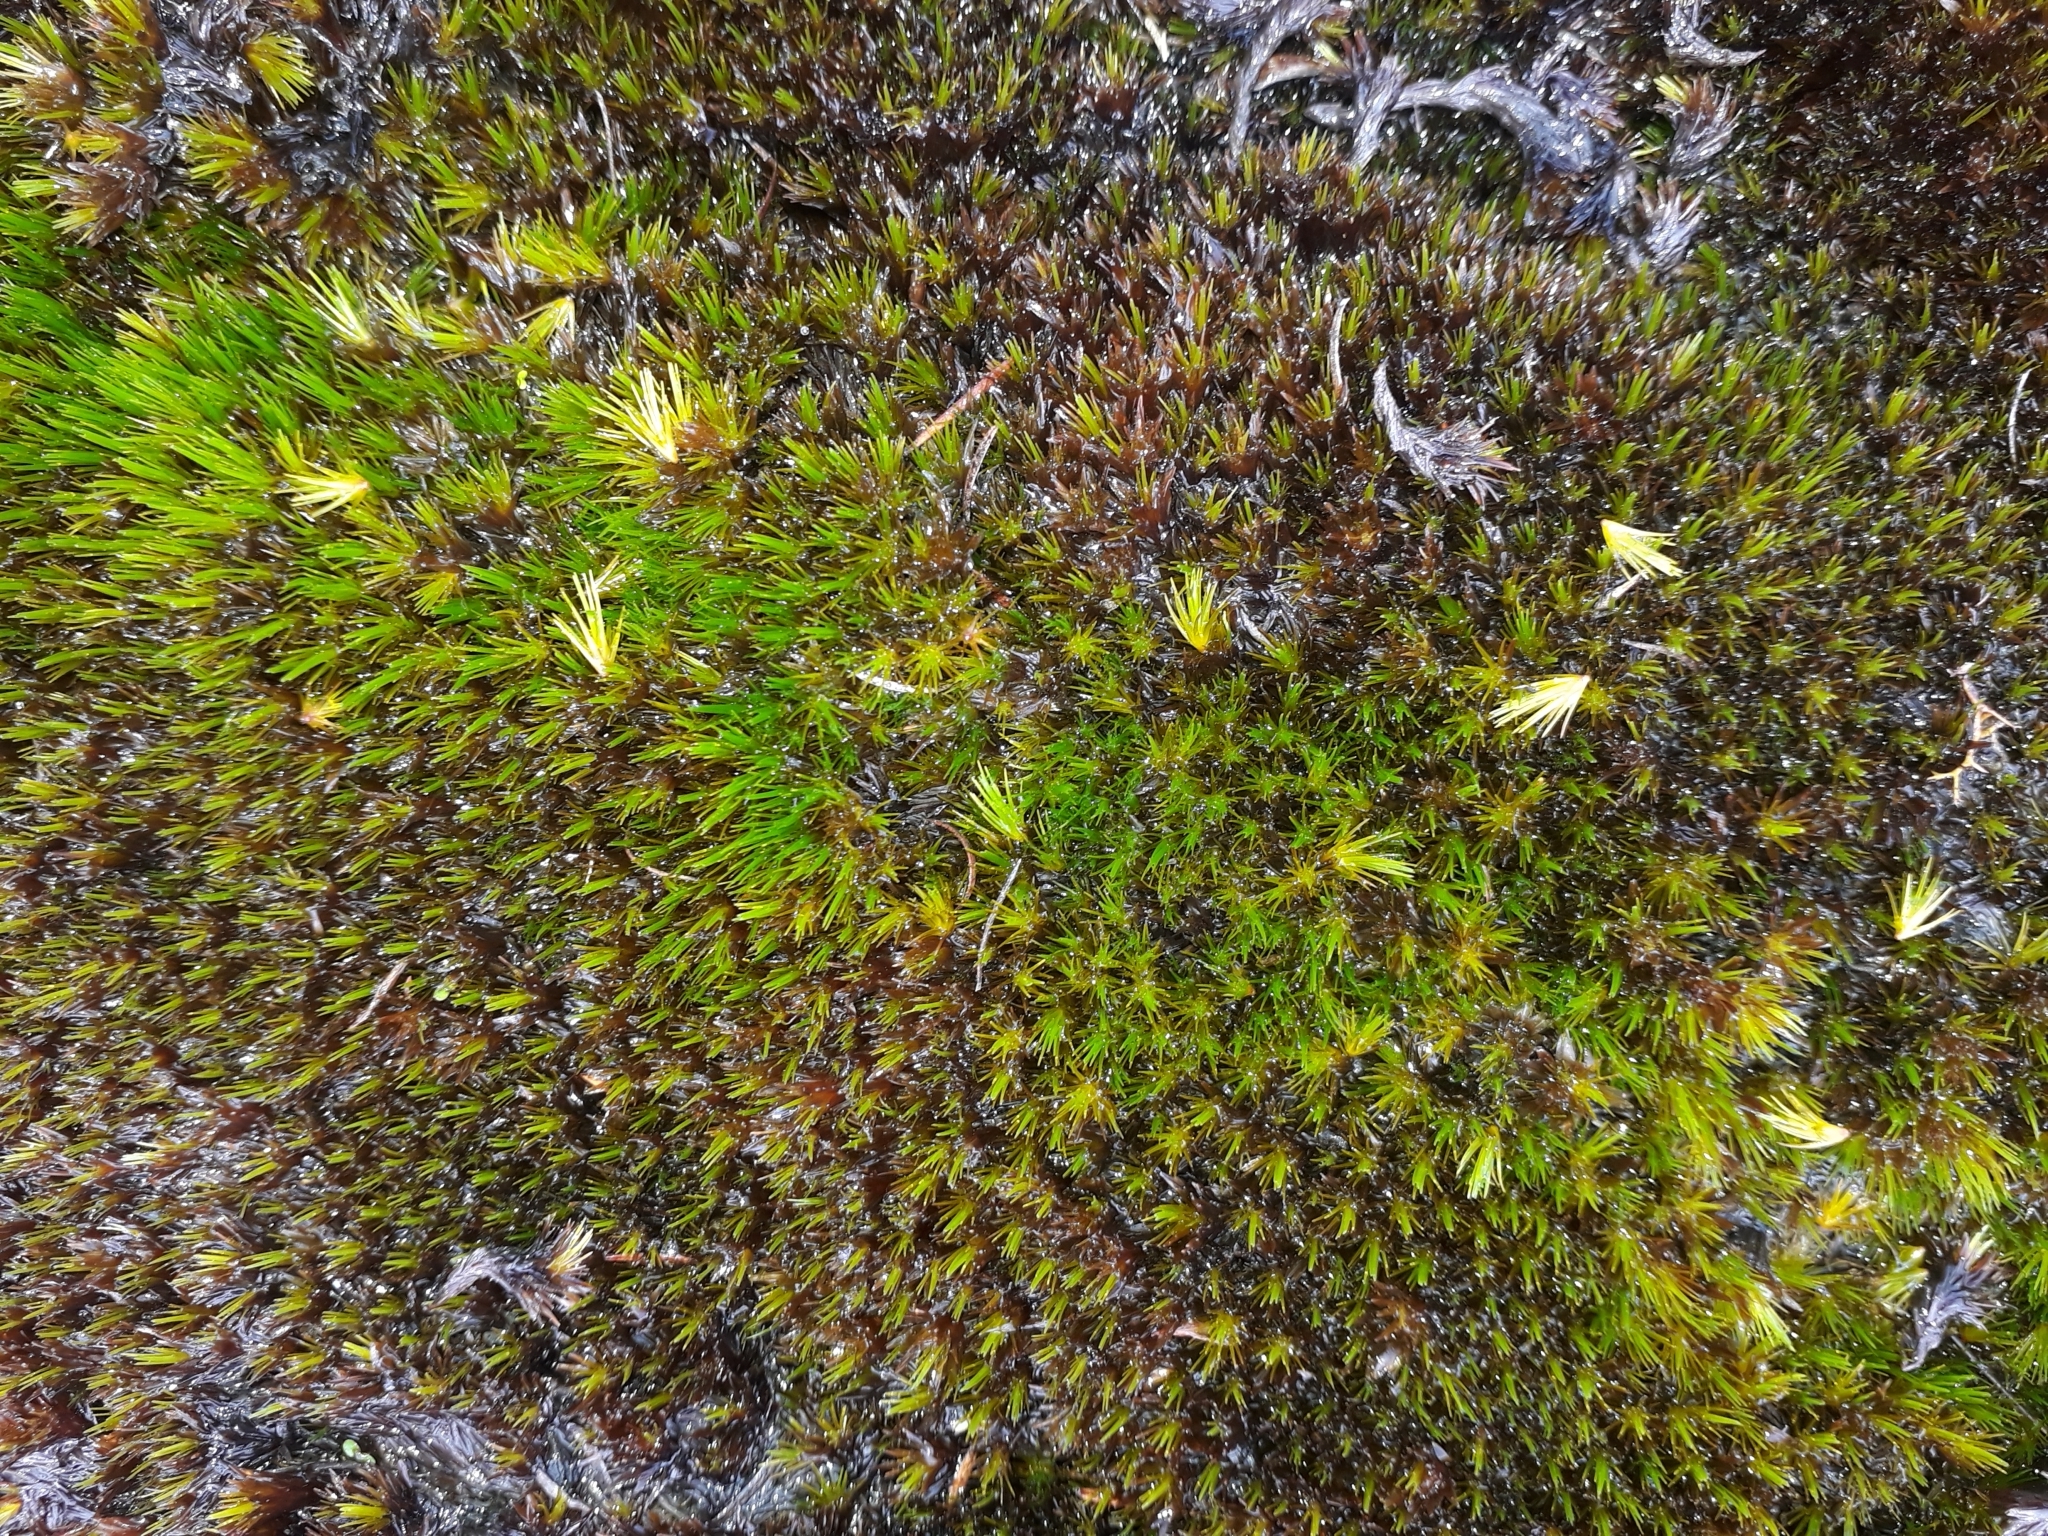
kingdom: Plantae
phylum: Bryophyta
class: Bryopsida
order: Dicranales
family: Leucobryaceae
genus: Campylopus
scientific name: Campylopus clavatus
